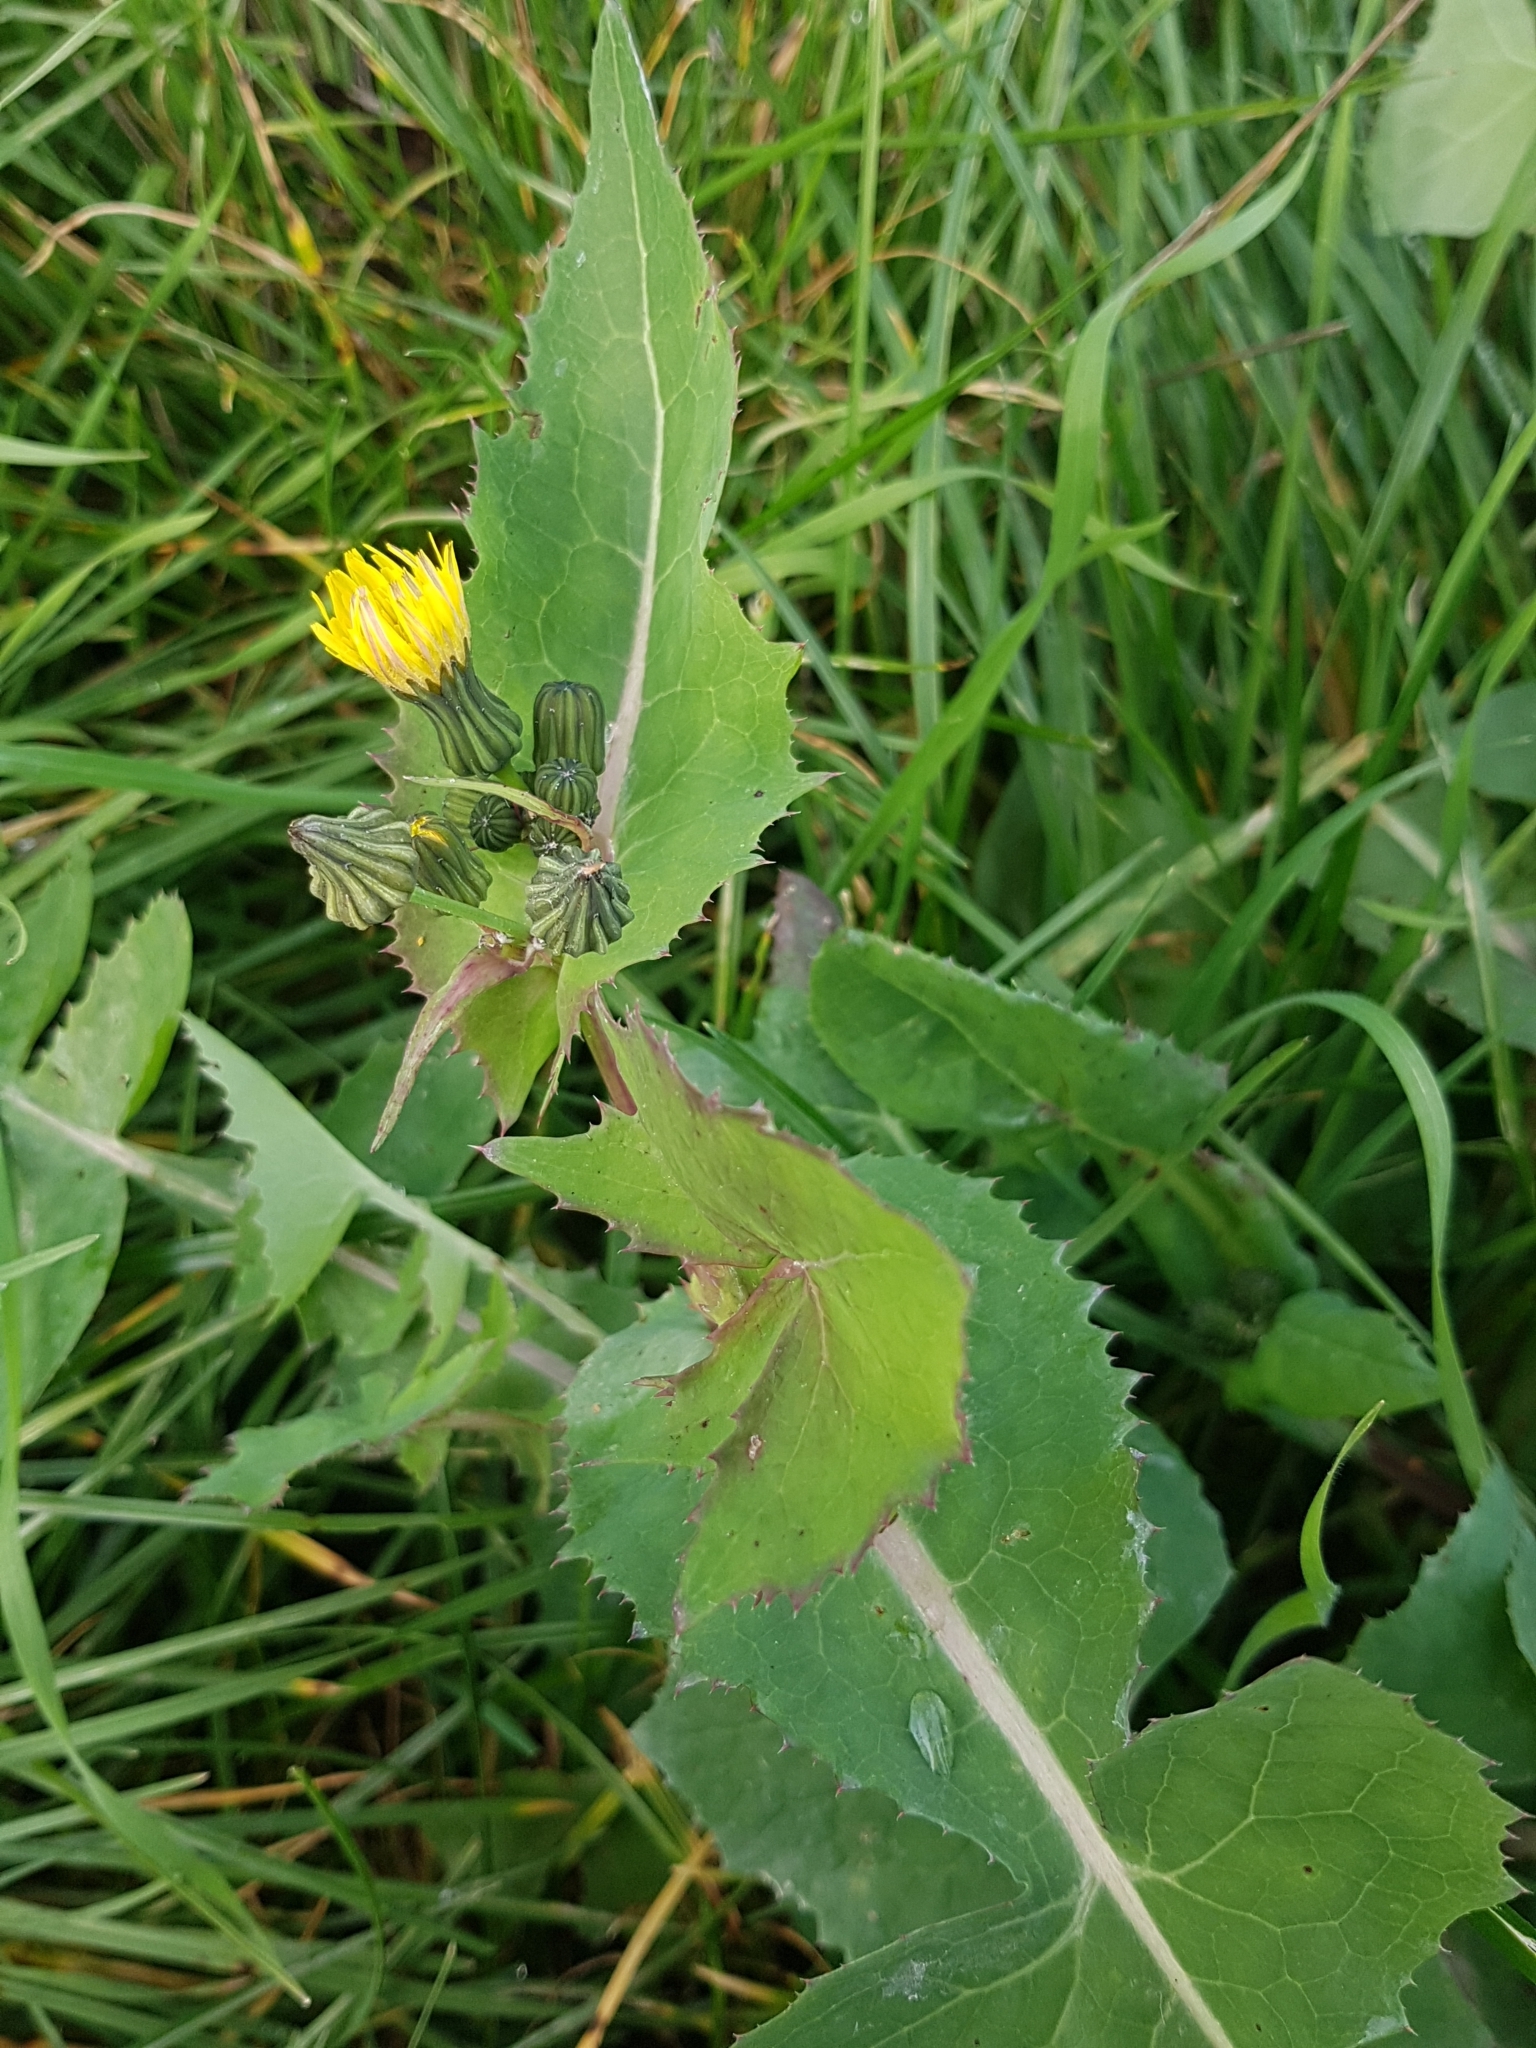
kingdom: Plantae
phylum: Tracheophyta
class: Magnoliopsida
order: Asterales
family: Asteraceae
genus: Sonchus
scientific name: Sonchus oleraceus
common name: Common sowthistle
